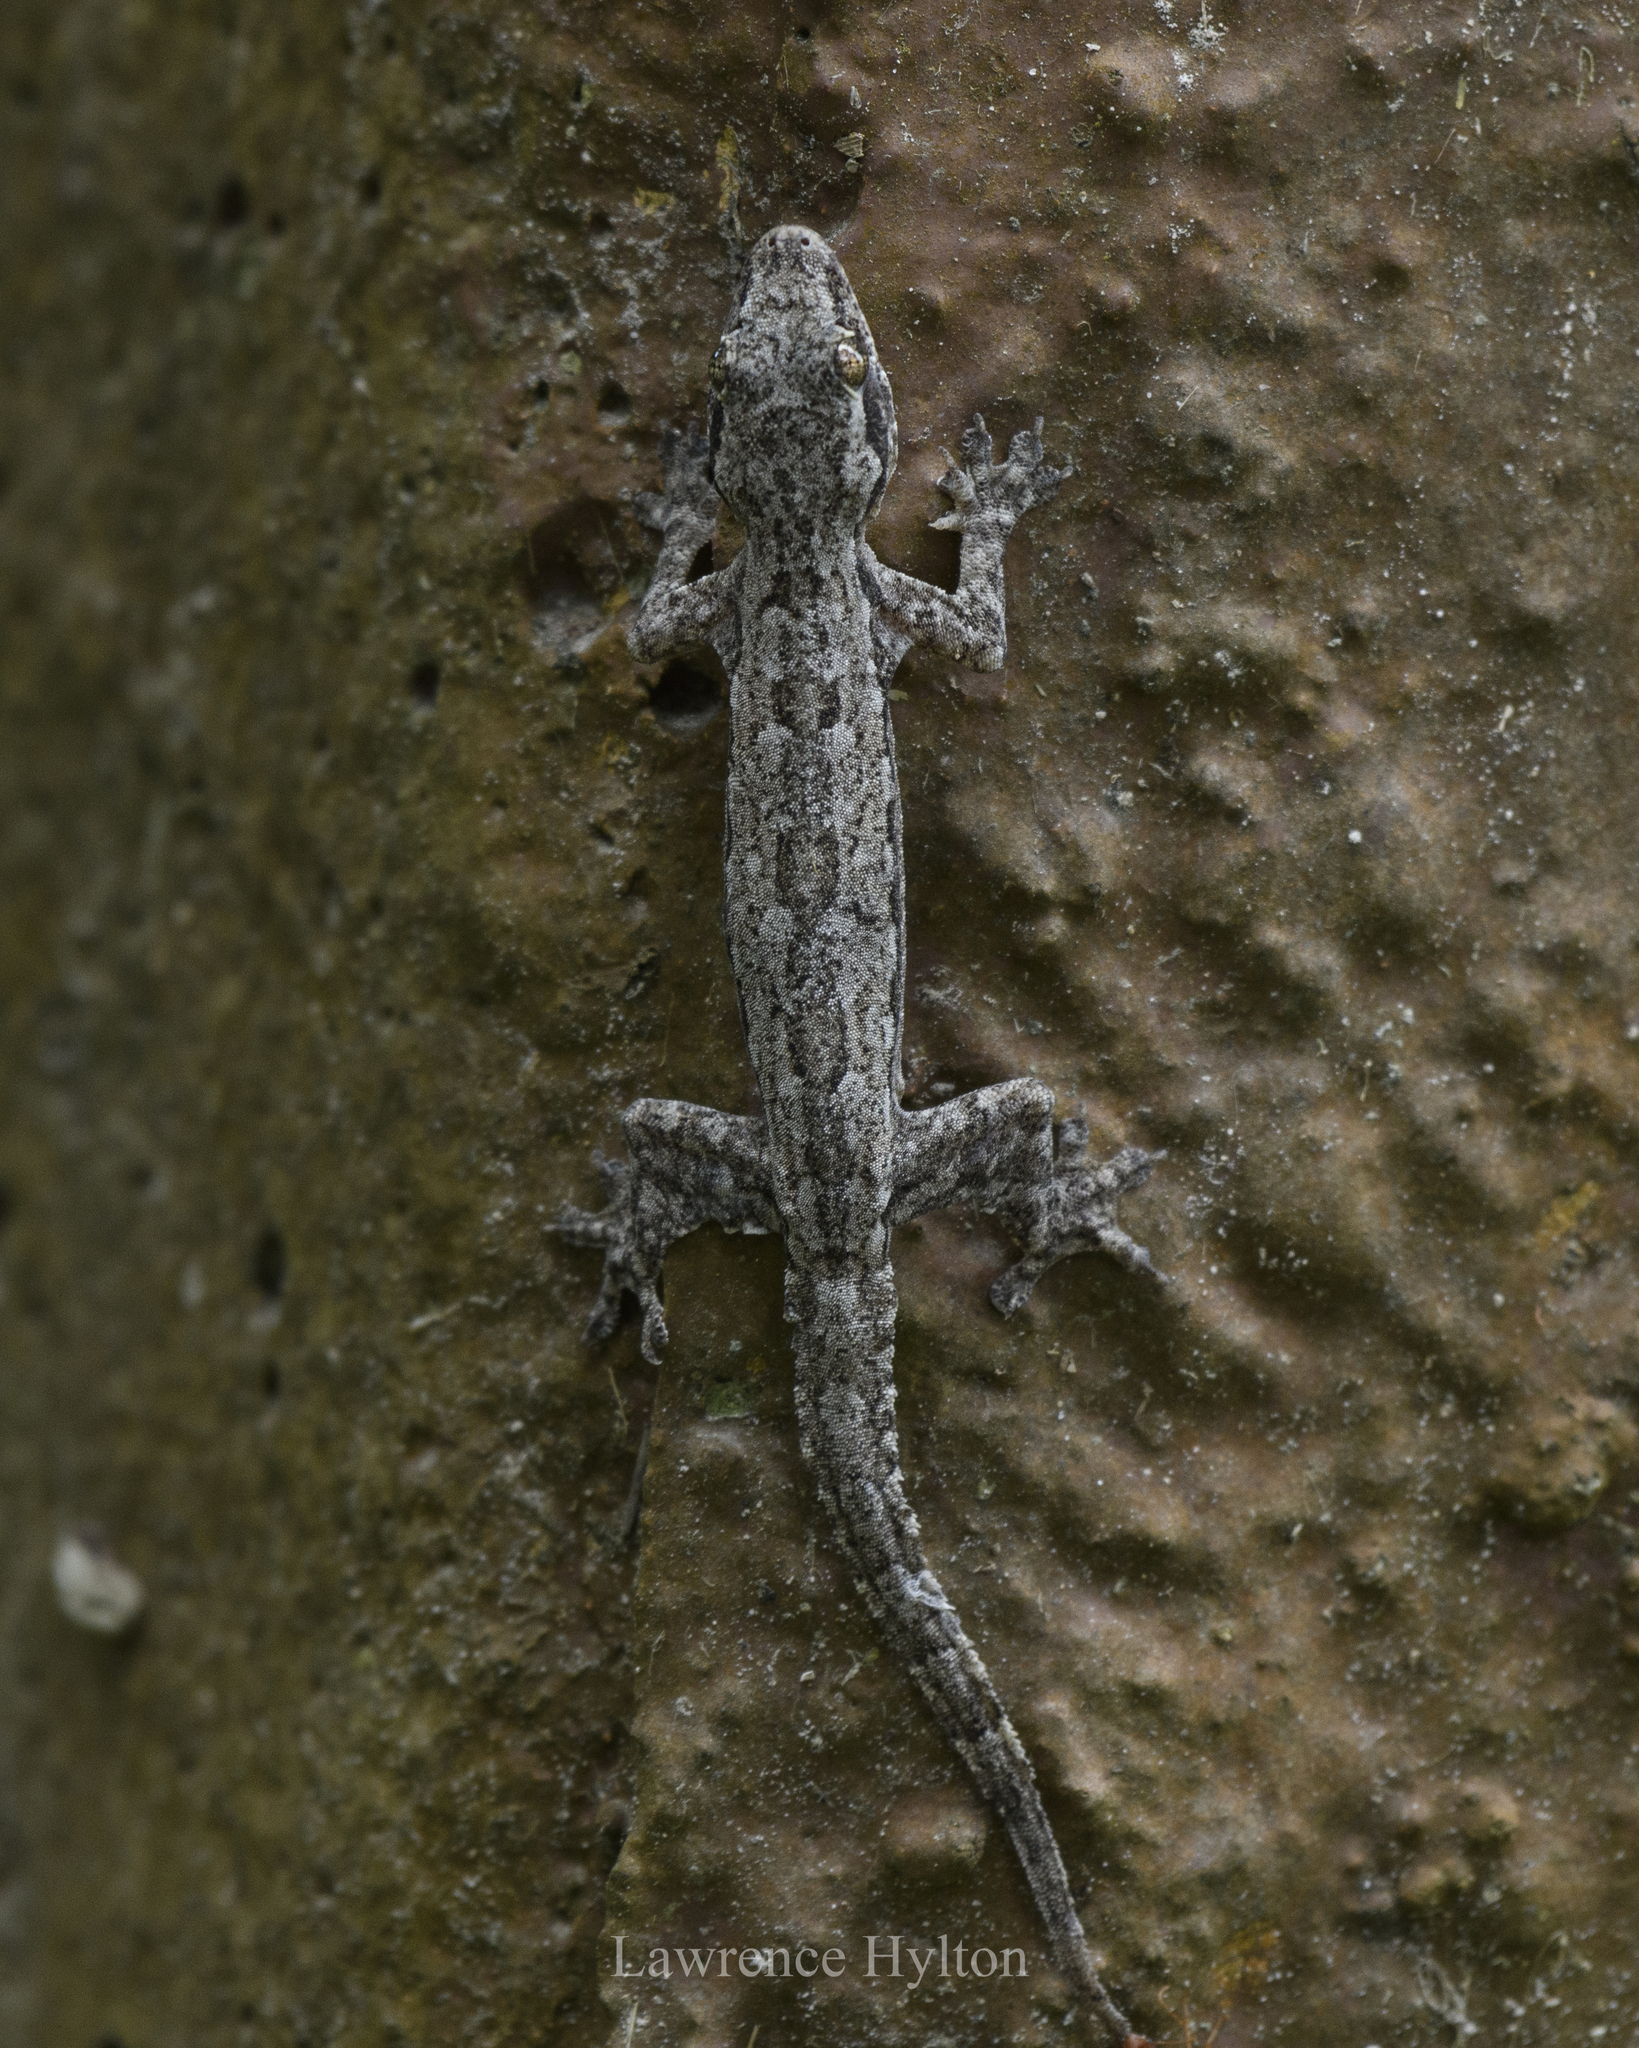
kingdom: Animalia
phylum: Chordata
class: Squamata
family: Gekkonidae
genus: Hemidactylus
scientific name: Hemidactylus platyurus
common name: Flat-tailed house gecko
